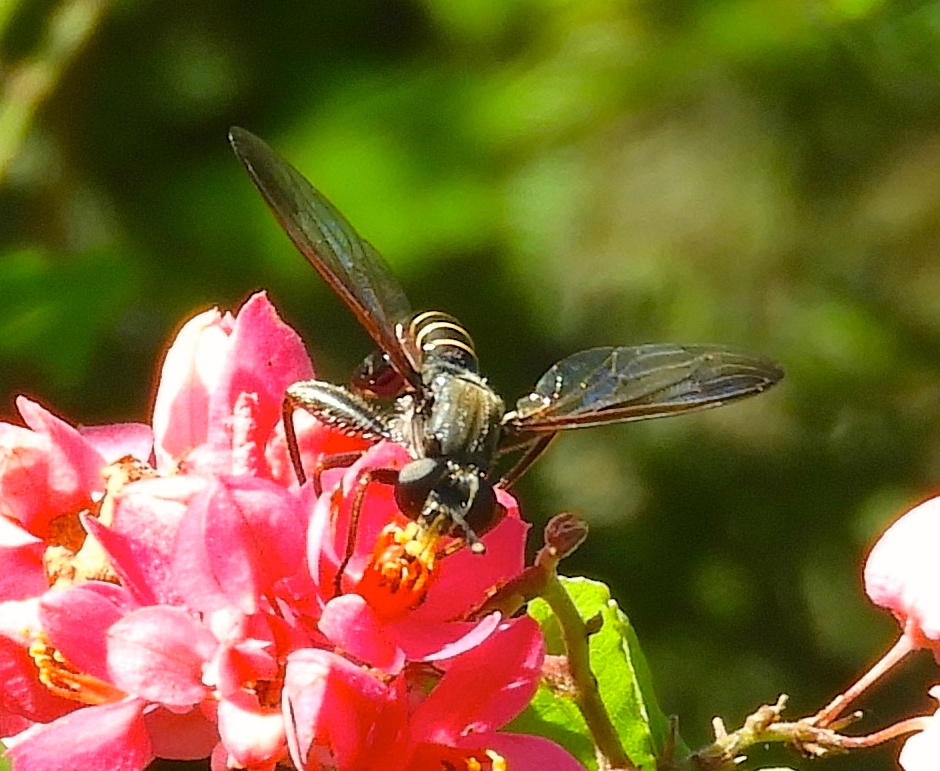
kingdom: Animalia
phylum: Arthropoda
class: Insecta
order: Diptera
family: Mydidae
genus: Mydas
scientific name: Mydas
